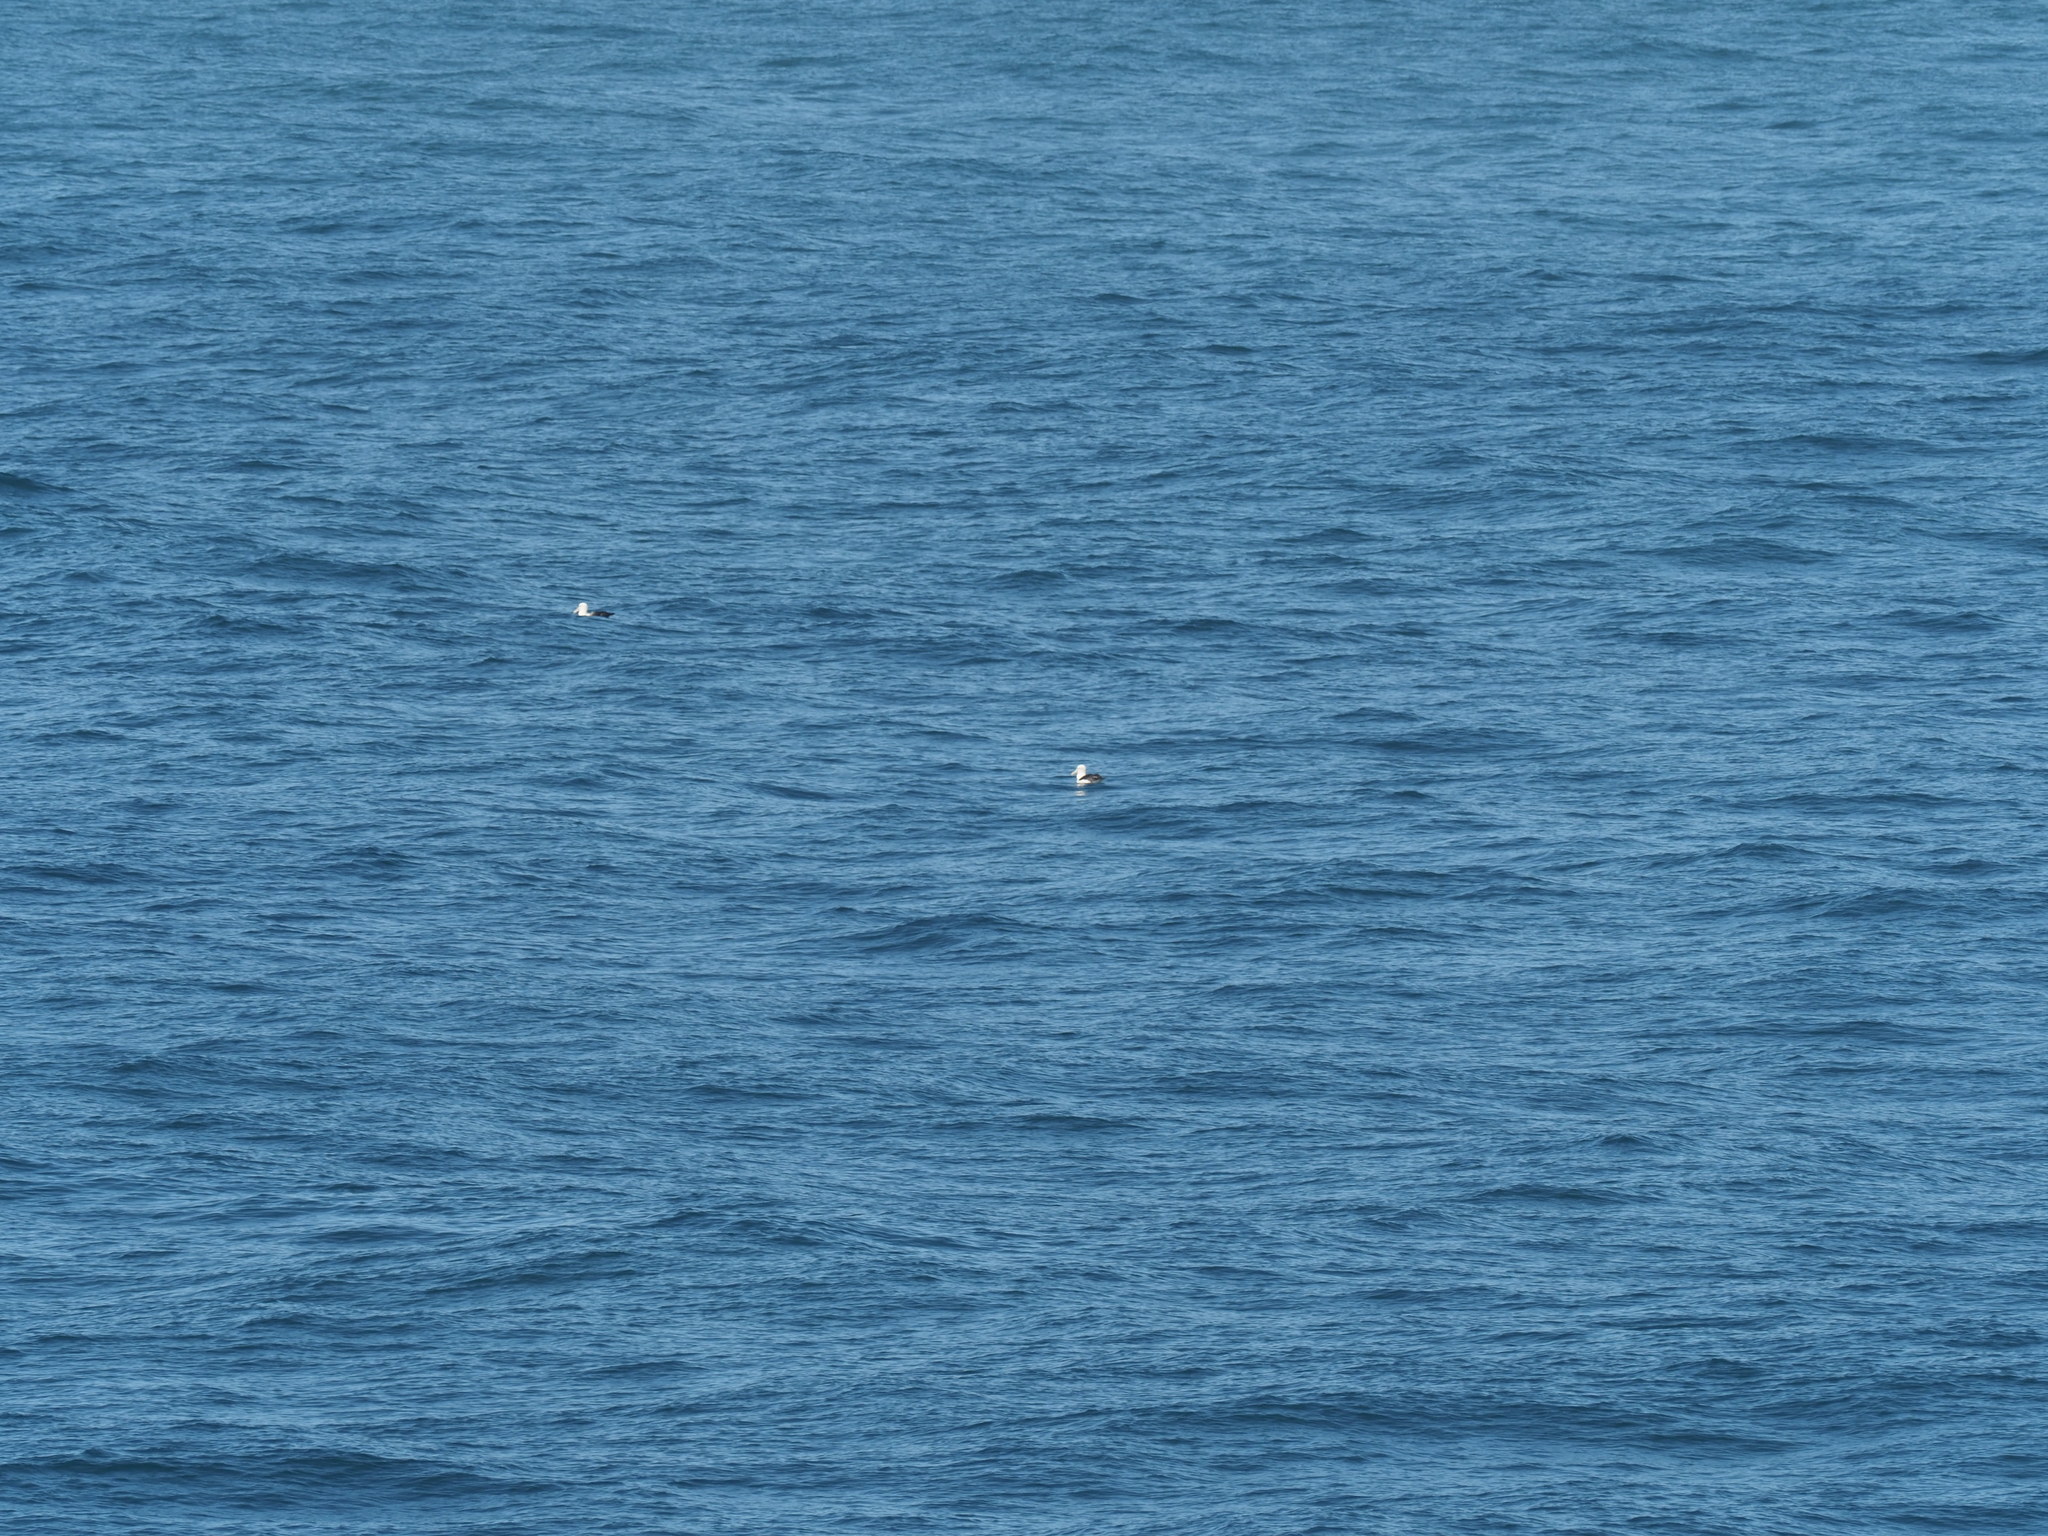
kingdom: Animalia
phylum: Chordata
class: Aves
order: Procellariiformes
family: Diomedeidae
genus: Thalassarche
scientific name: Thalassarche cauta
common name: Shy albatross
